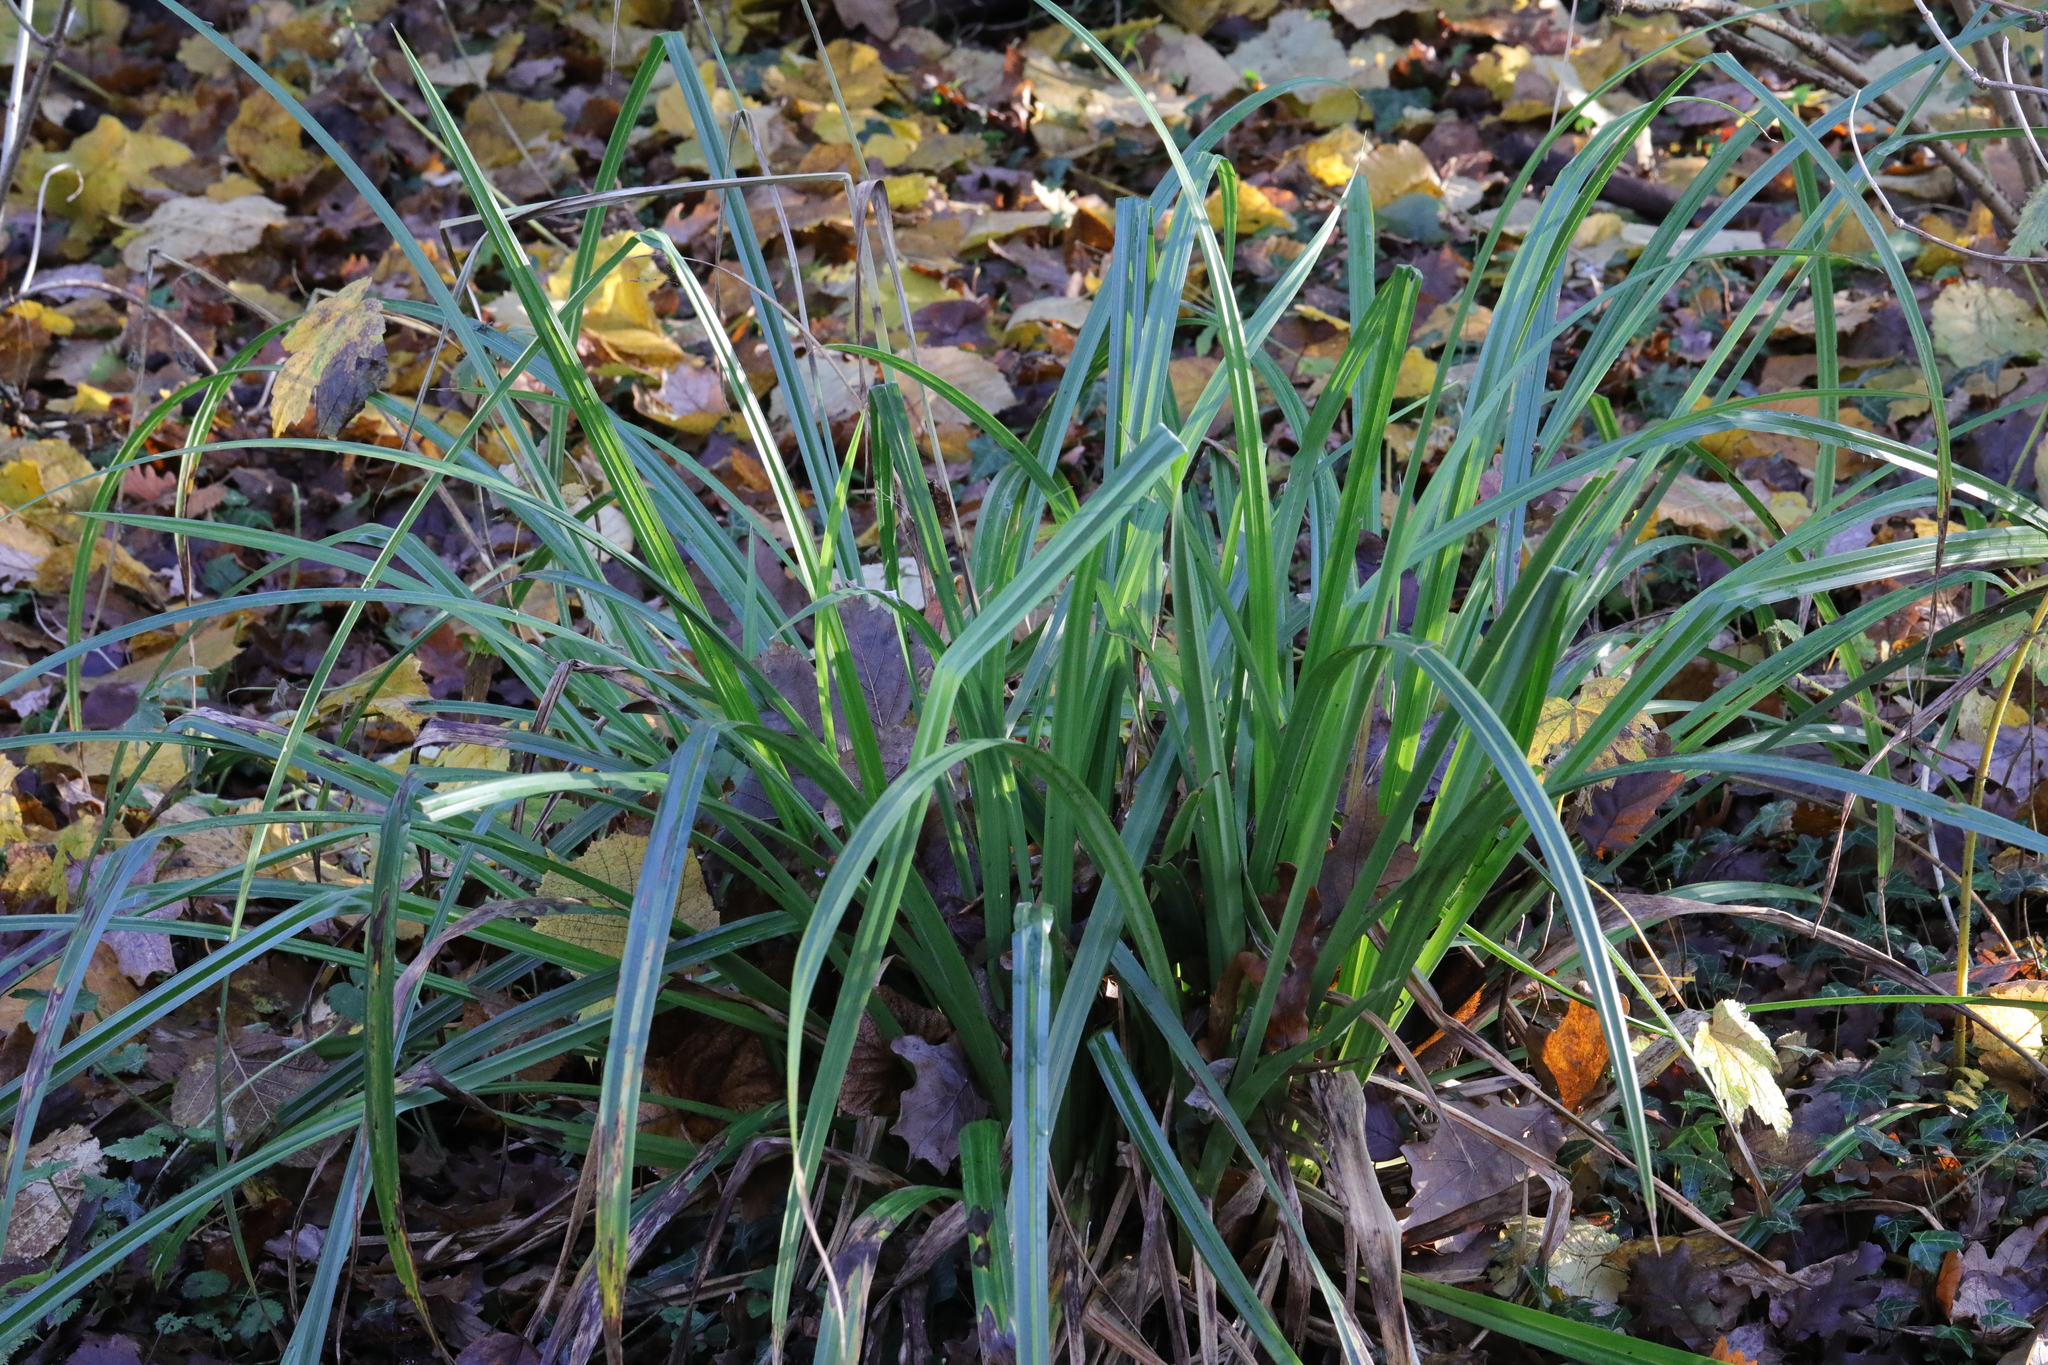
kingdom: Plantae
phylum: Tracheophyta
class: Liliopsida
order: Poales
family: Cyperaceae
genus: Carex
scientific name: Carex pendula
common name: Pendulous sedge
